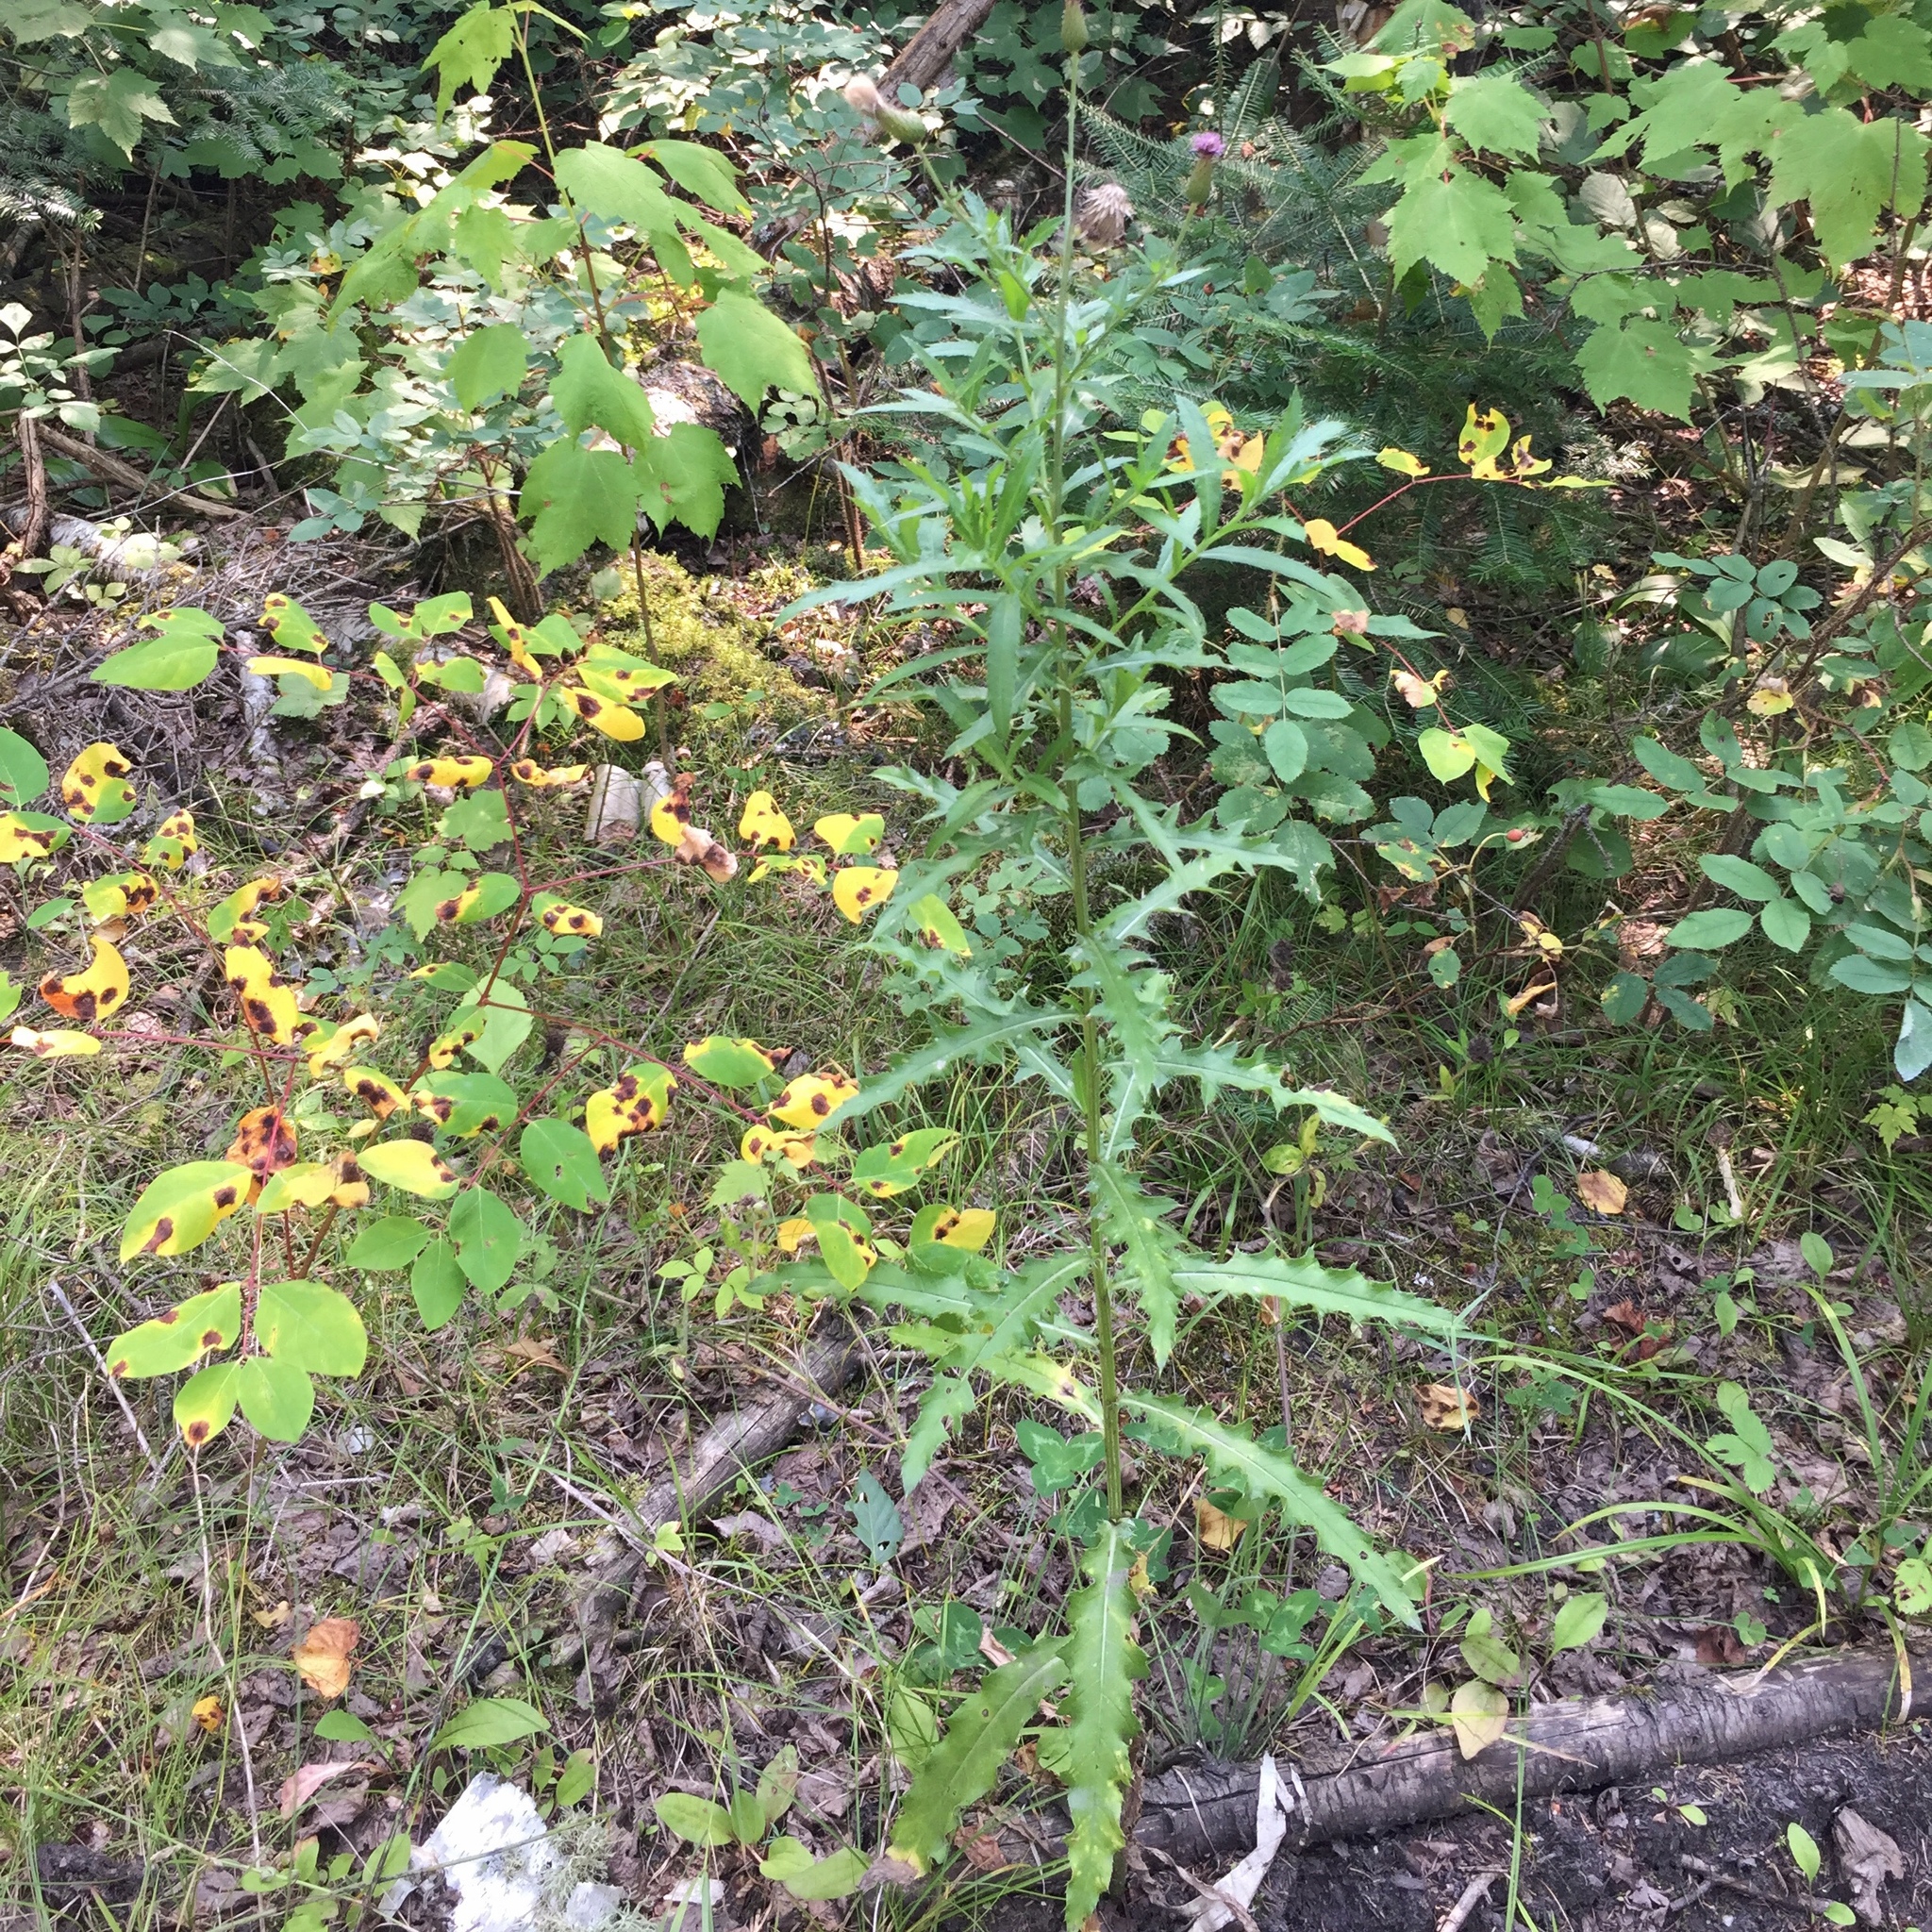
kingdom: Plantae
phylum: Tracheophyta
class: Magnoliopsida
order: Asterales
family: Asteraceae
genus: Cirsium
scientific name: Cirsium arvense
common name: Creeping thistle
